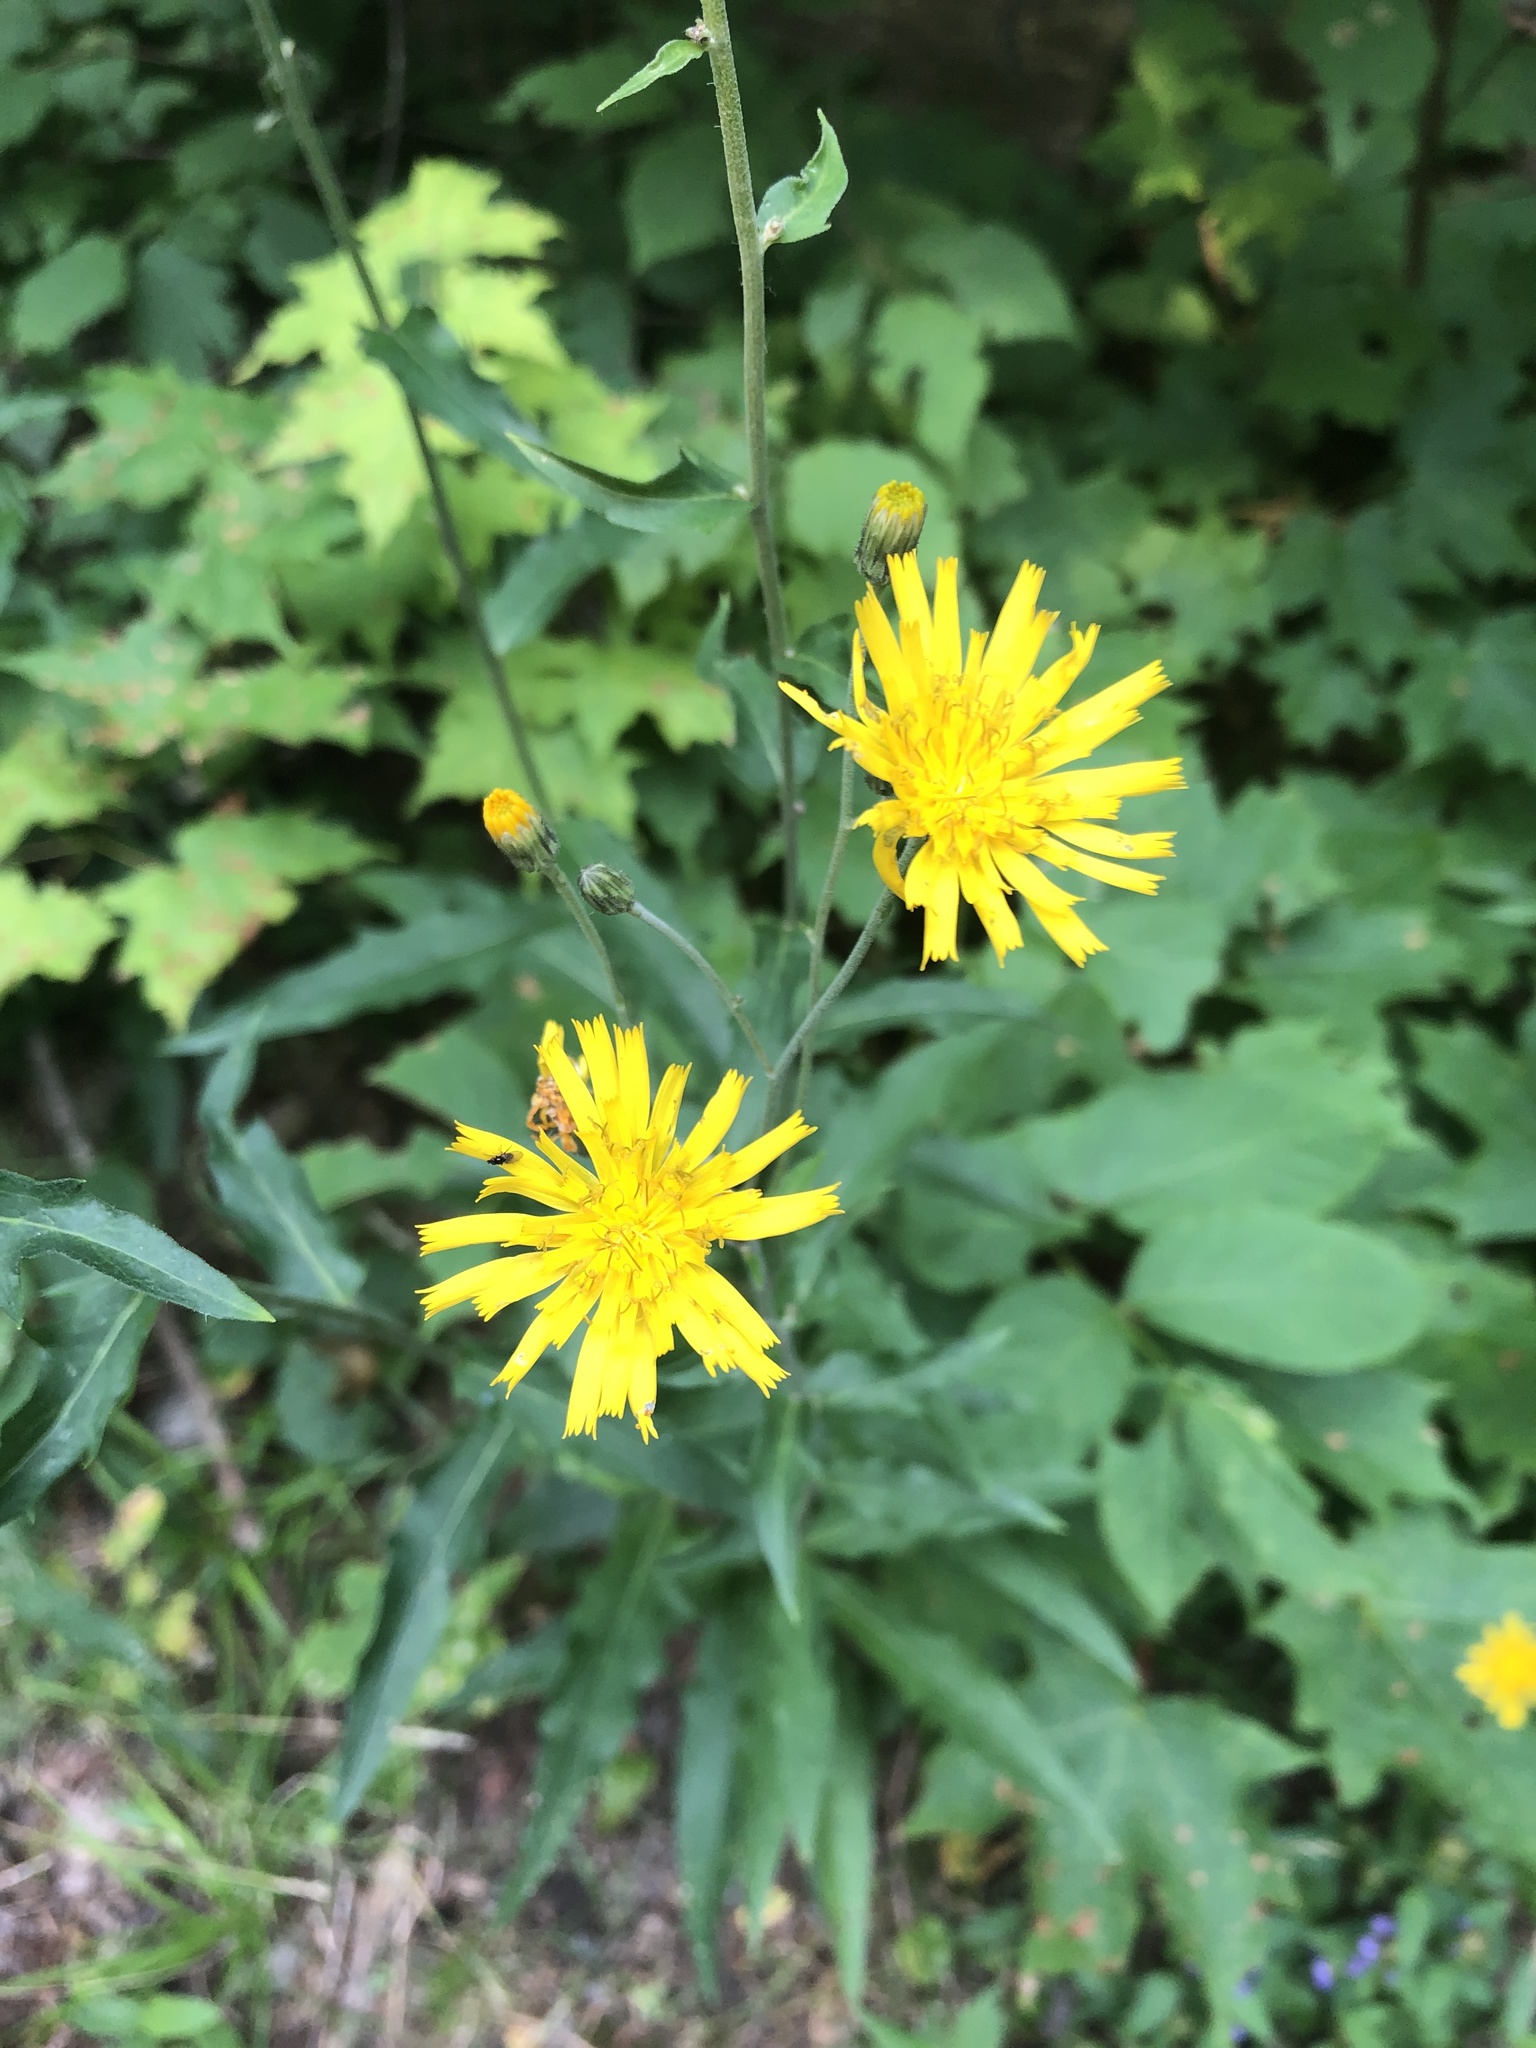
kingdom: Plantae
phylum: Tracheophyta
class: Magnoliopsida
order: Asterales
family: Asteraceae
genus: Hieracium
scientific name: Hieracium umbellatum
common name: Northern hawkweed
